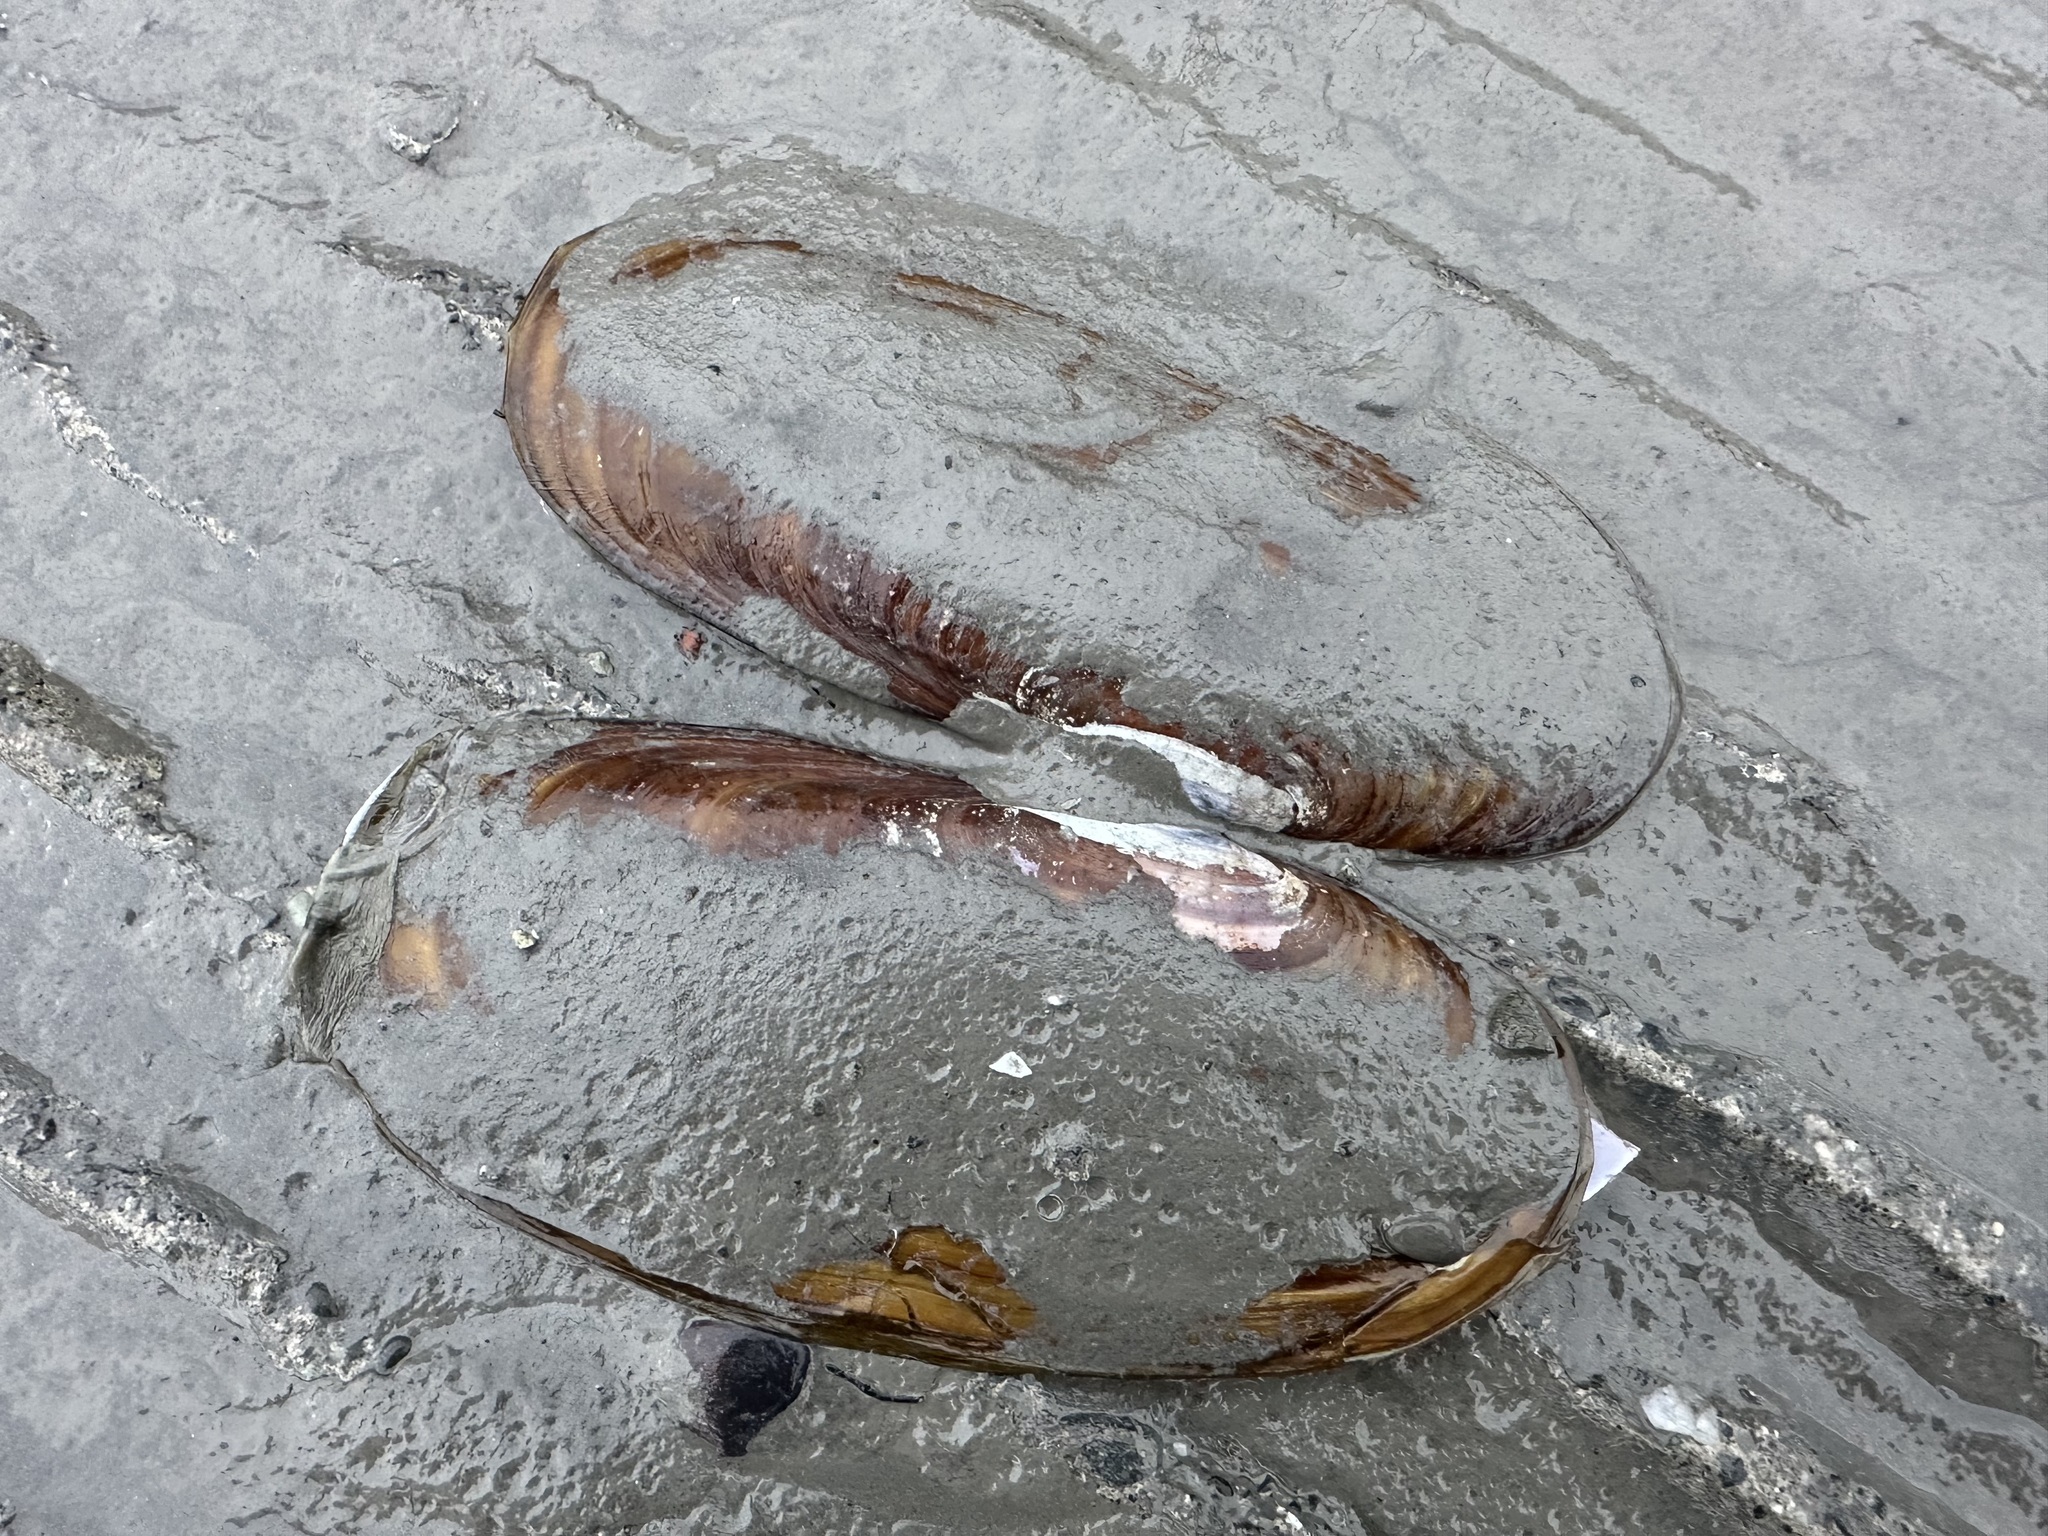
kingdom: Animalia
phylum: Mollusca
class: Bivalvia
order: Adapedonta
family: Pharidae
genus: Siliqua
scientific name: Siliqua patula
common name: Pacific razor clam
